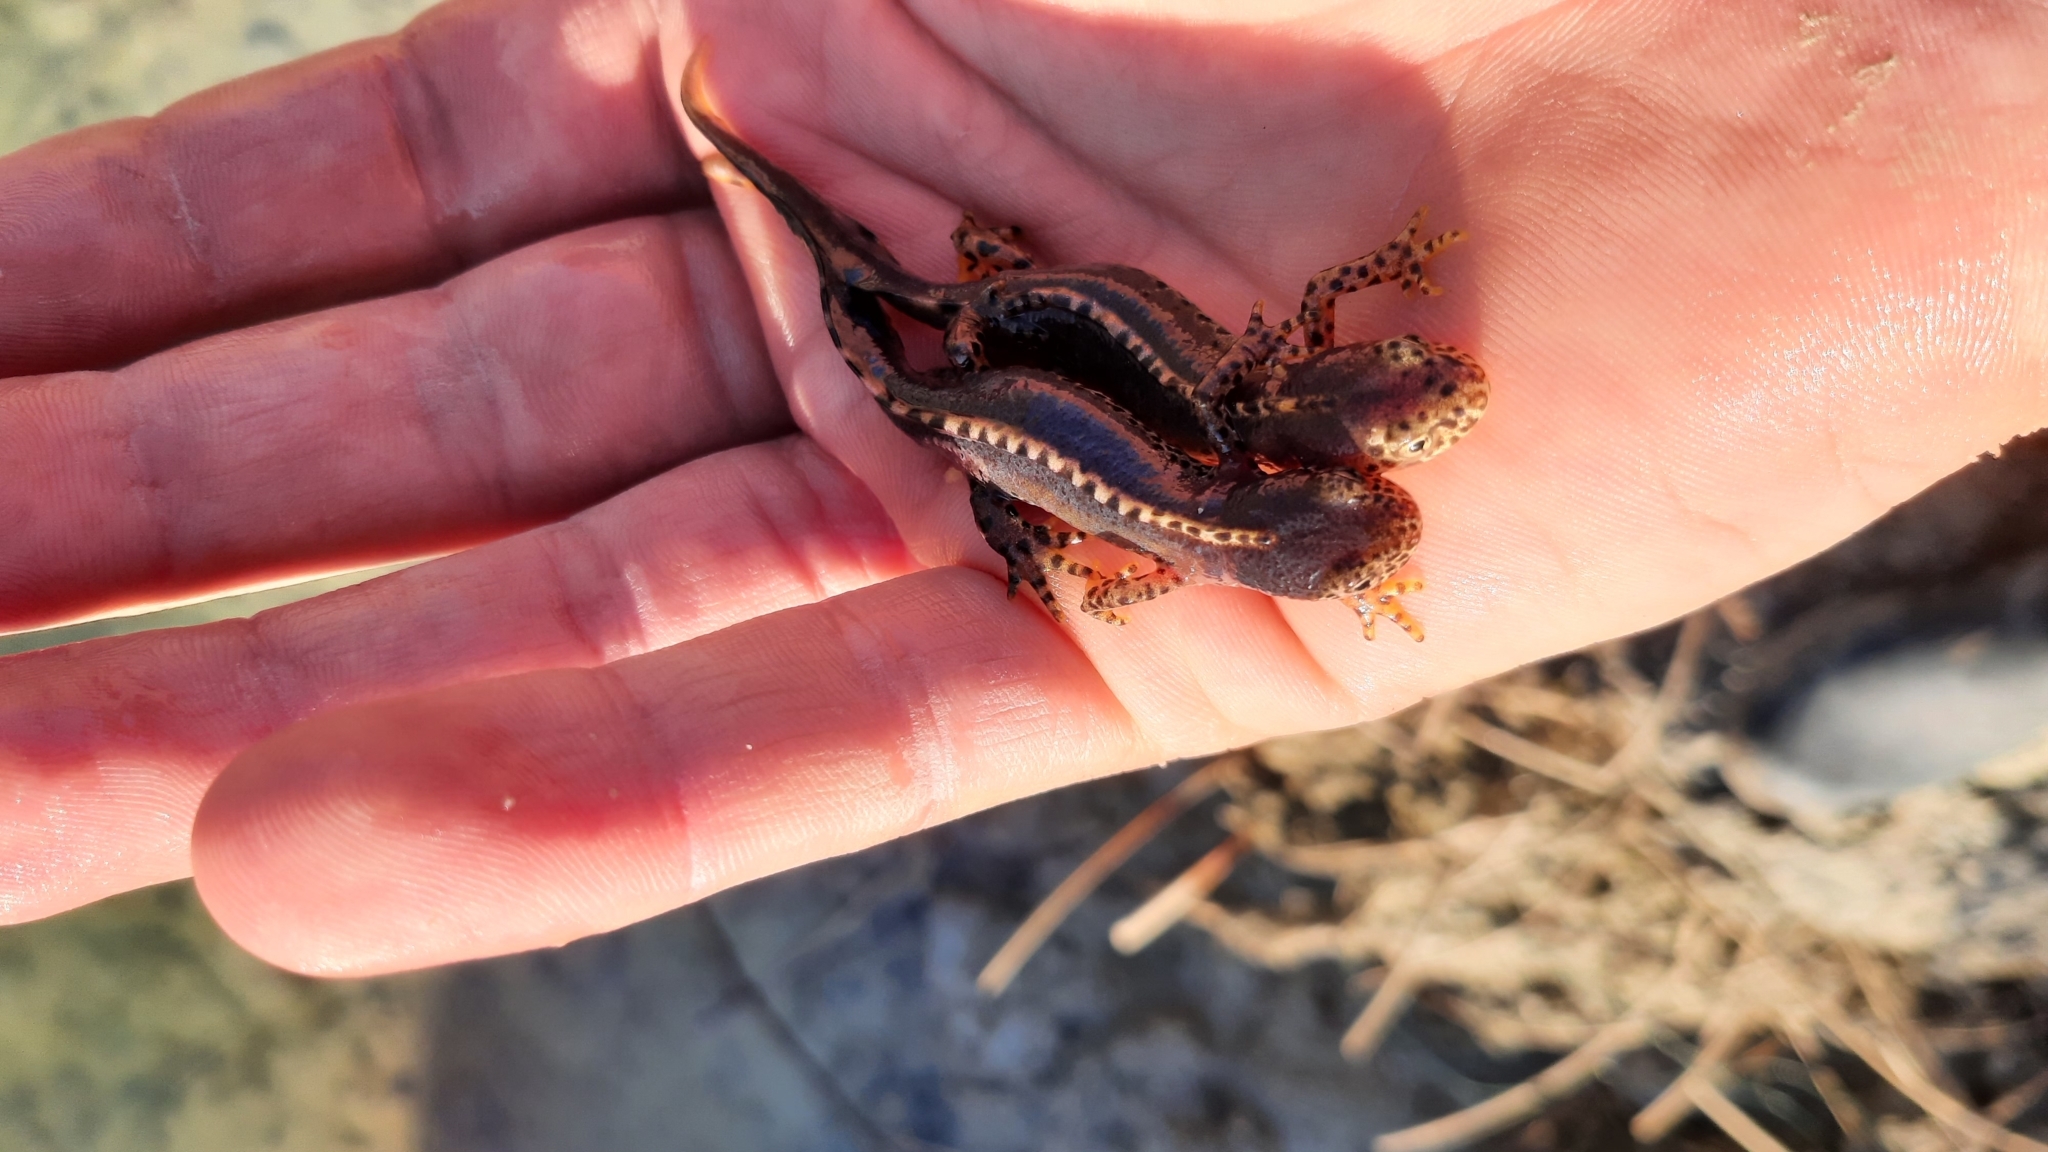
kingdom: Animalia
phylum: Chordata
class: Amphibia
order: Caudata
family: Salamandridae
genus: Ichthyosaura
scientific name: Ichthyosaura alpestris
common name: Alpine newt
